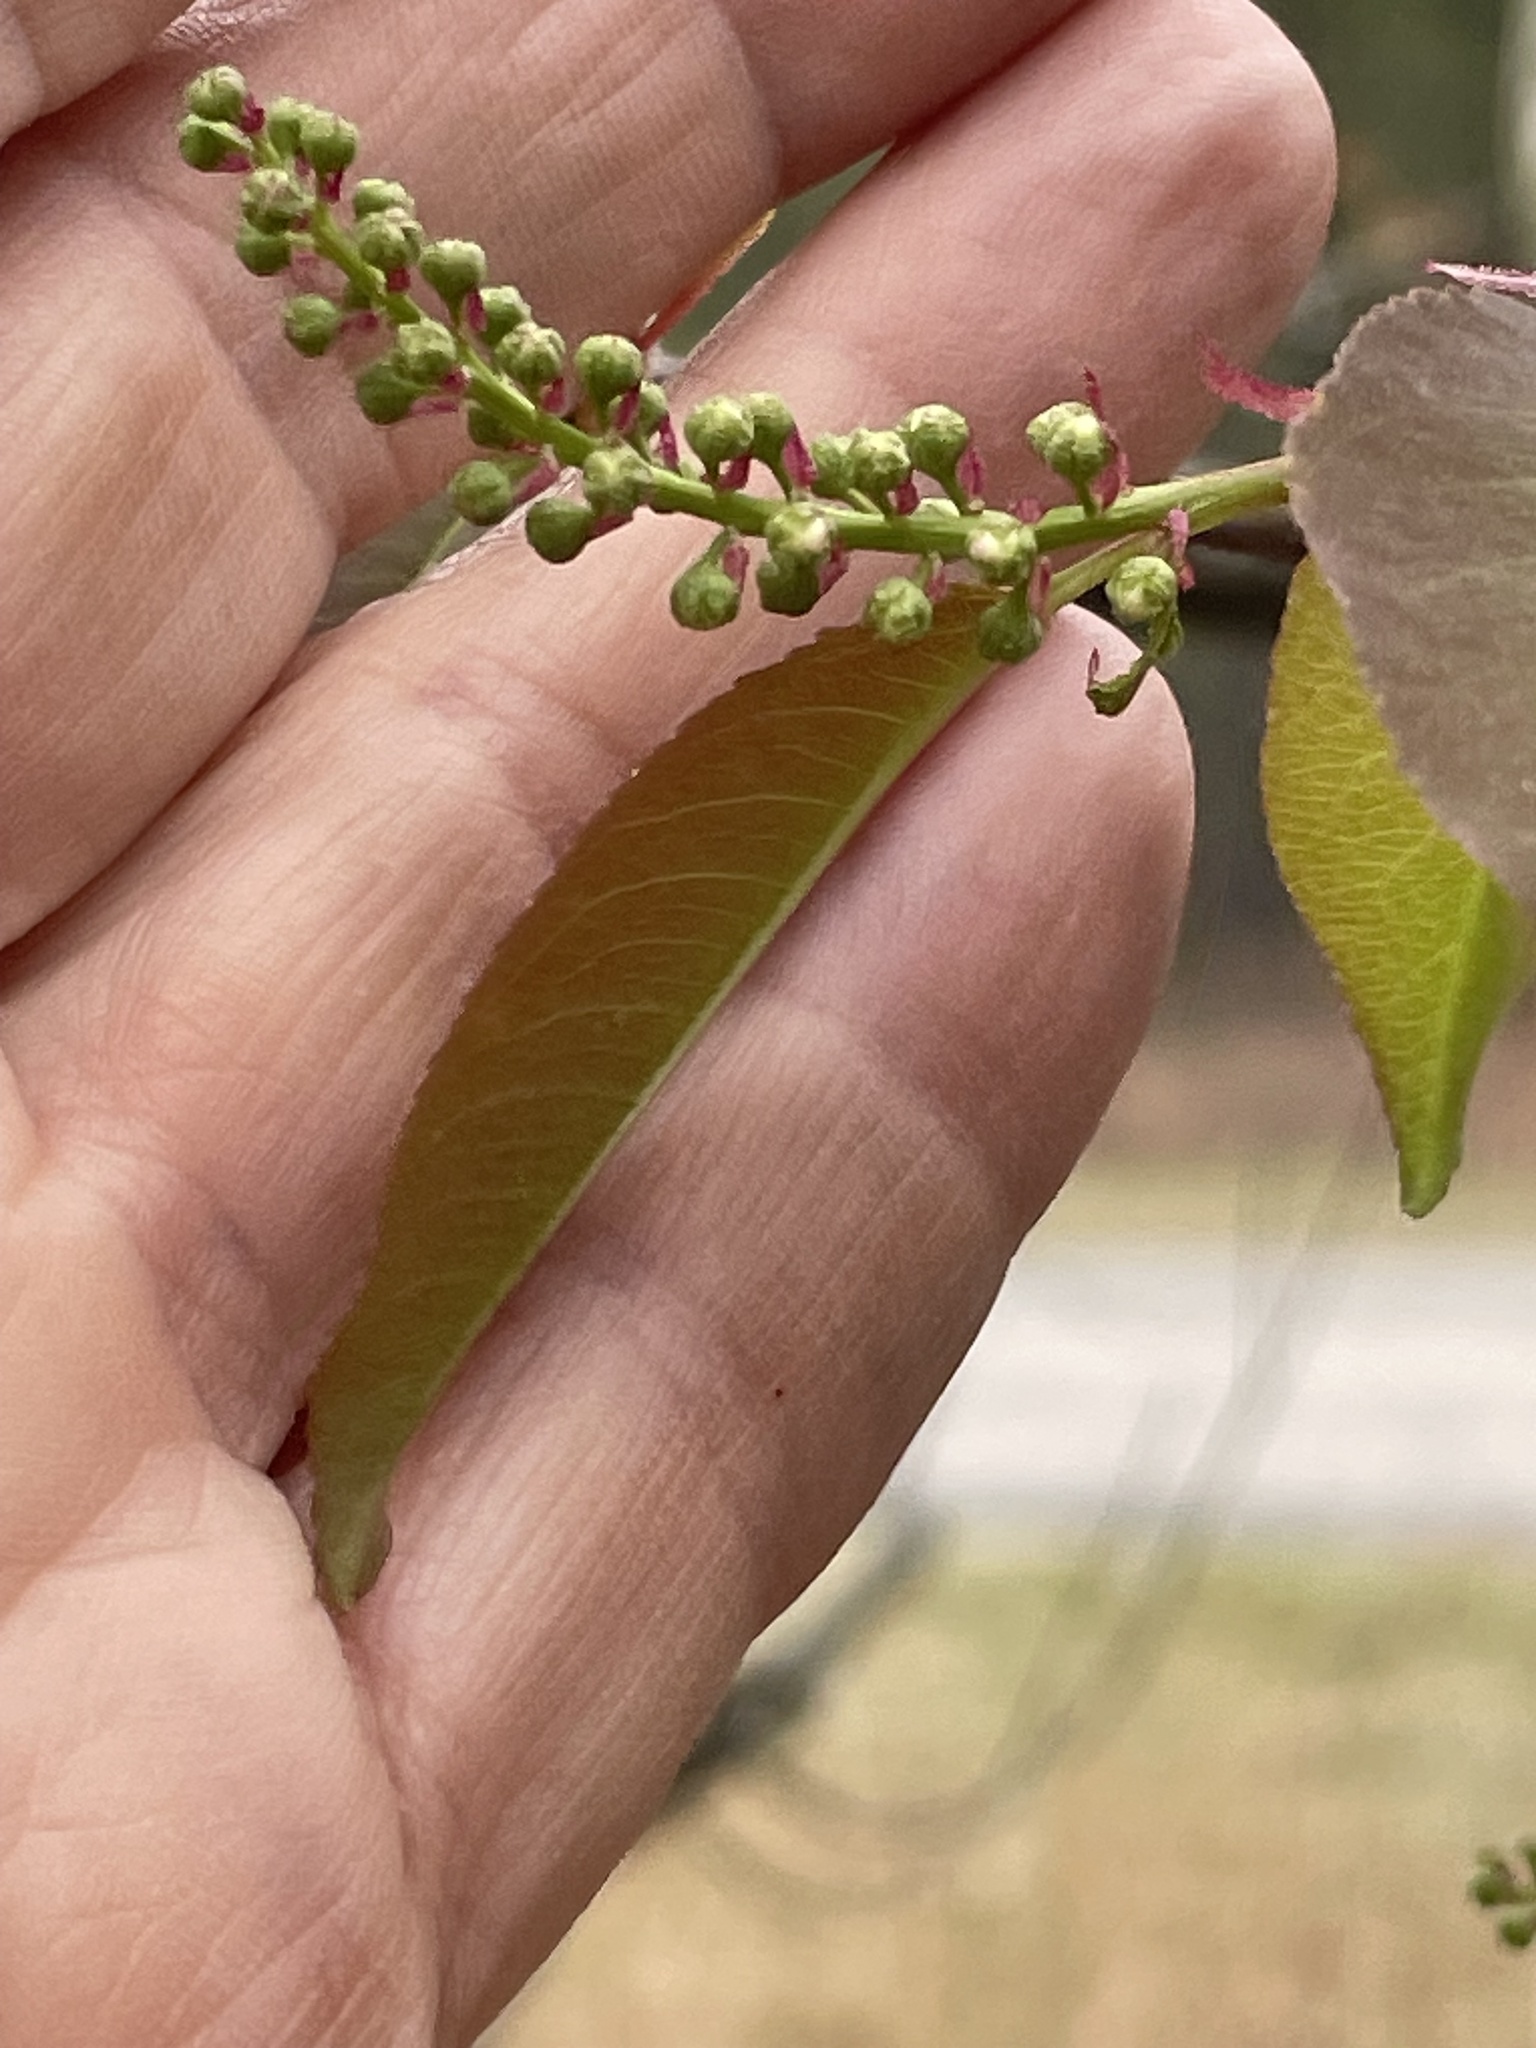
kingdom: Plantae
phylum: Tracheophyta
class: Magnoliopsida
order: Rosales
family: Rosaceae
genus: Prunus
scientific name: Prunus serotina
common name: Black cherry
